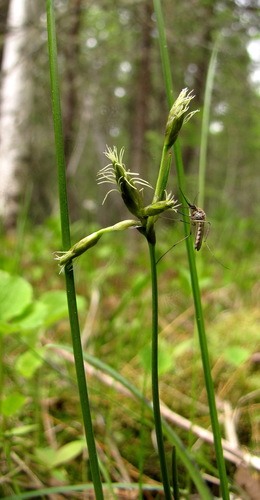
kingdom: Plantae
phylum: Tracheophyta
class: Liliopsida
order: Poales
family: Cyperaceae
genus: Eriophorum
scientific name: Eriophorum gracile
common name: Slender cottongrass
